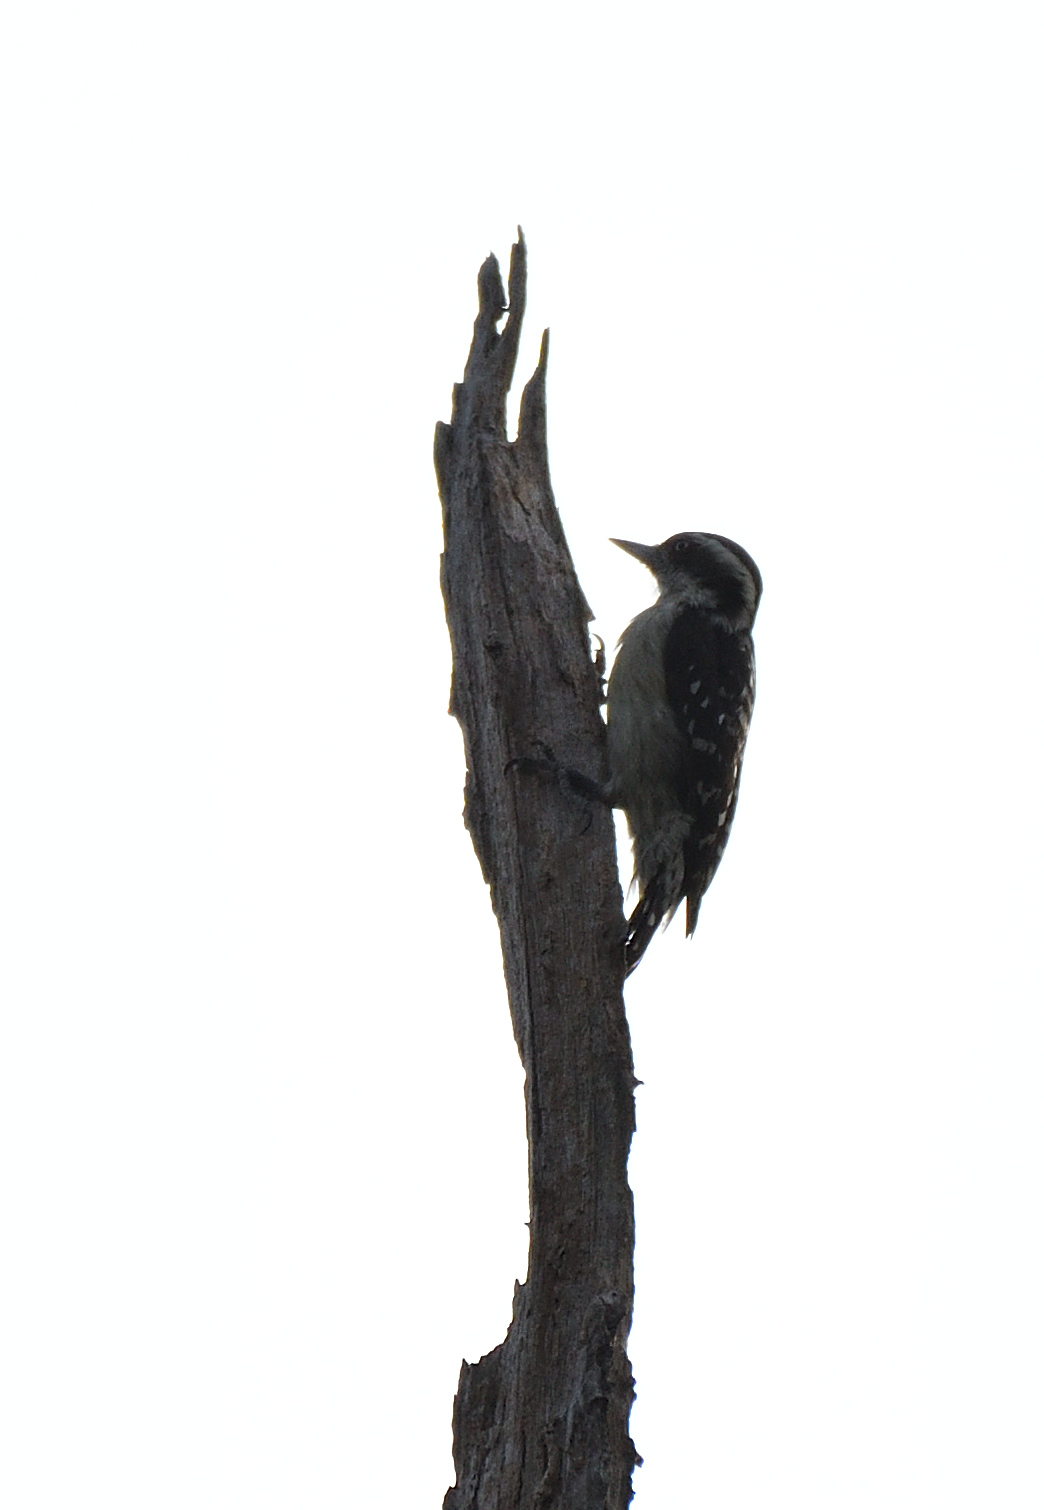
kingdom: Animalia
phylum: Chordata
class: Aves
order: Piciformes
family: Picidae
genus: Yungipicus
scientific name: Yungipicus nanus
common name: Brown-capped pygmy woodpecker
